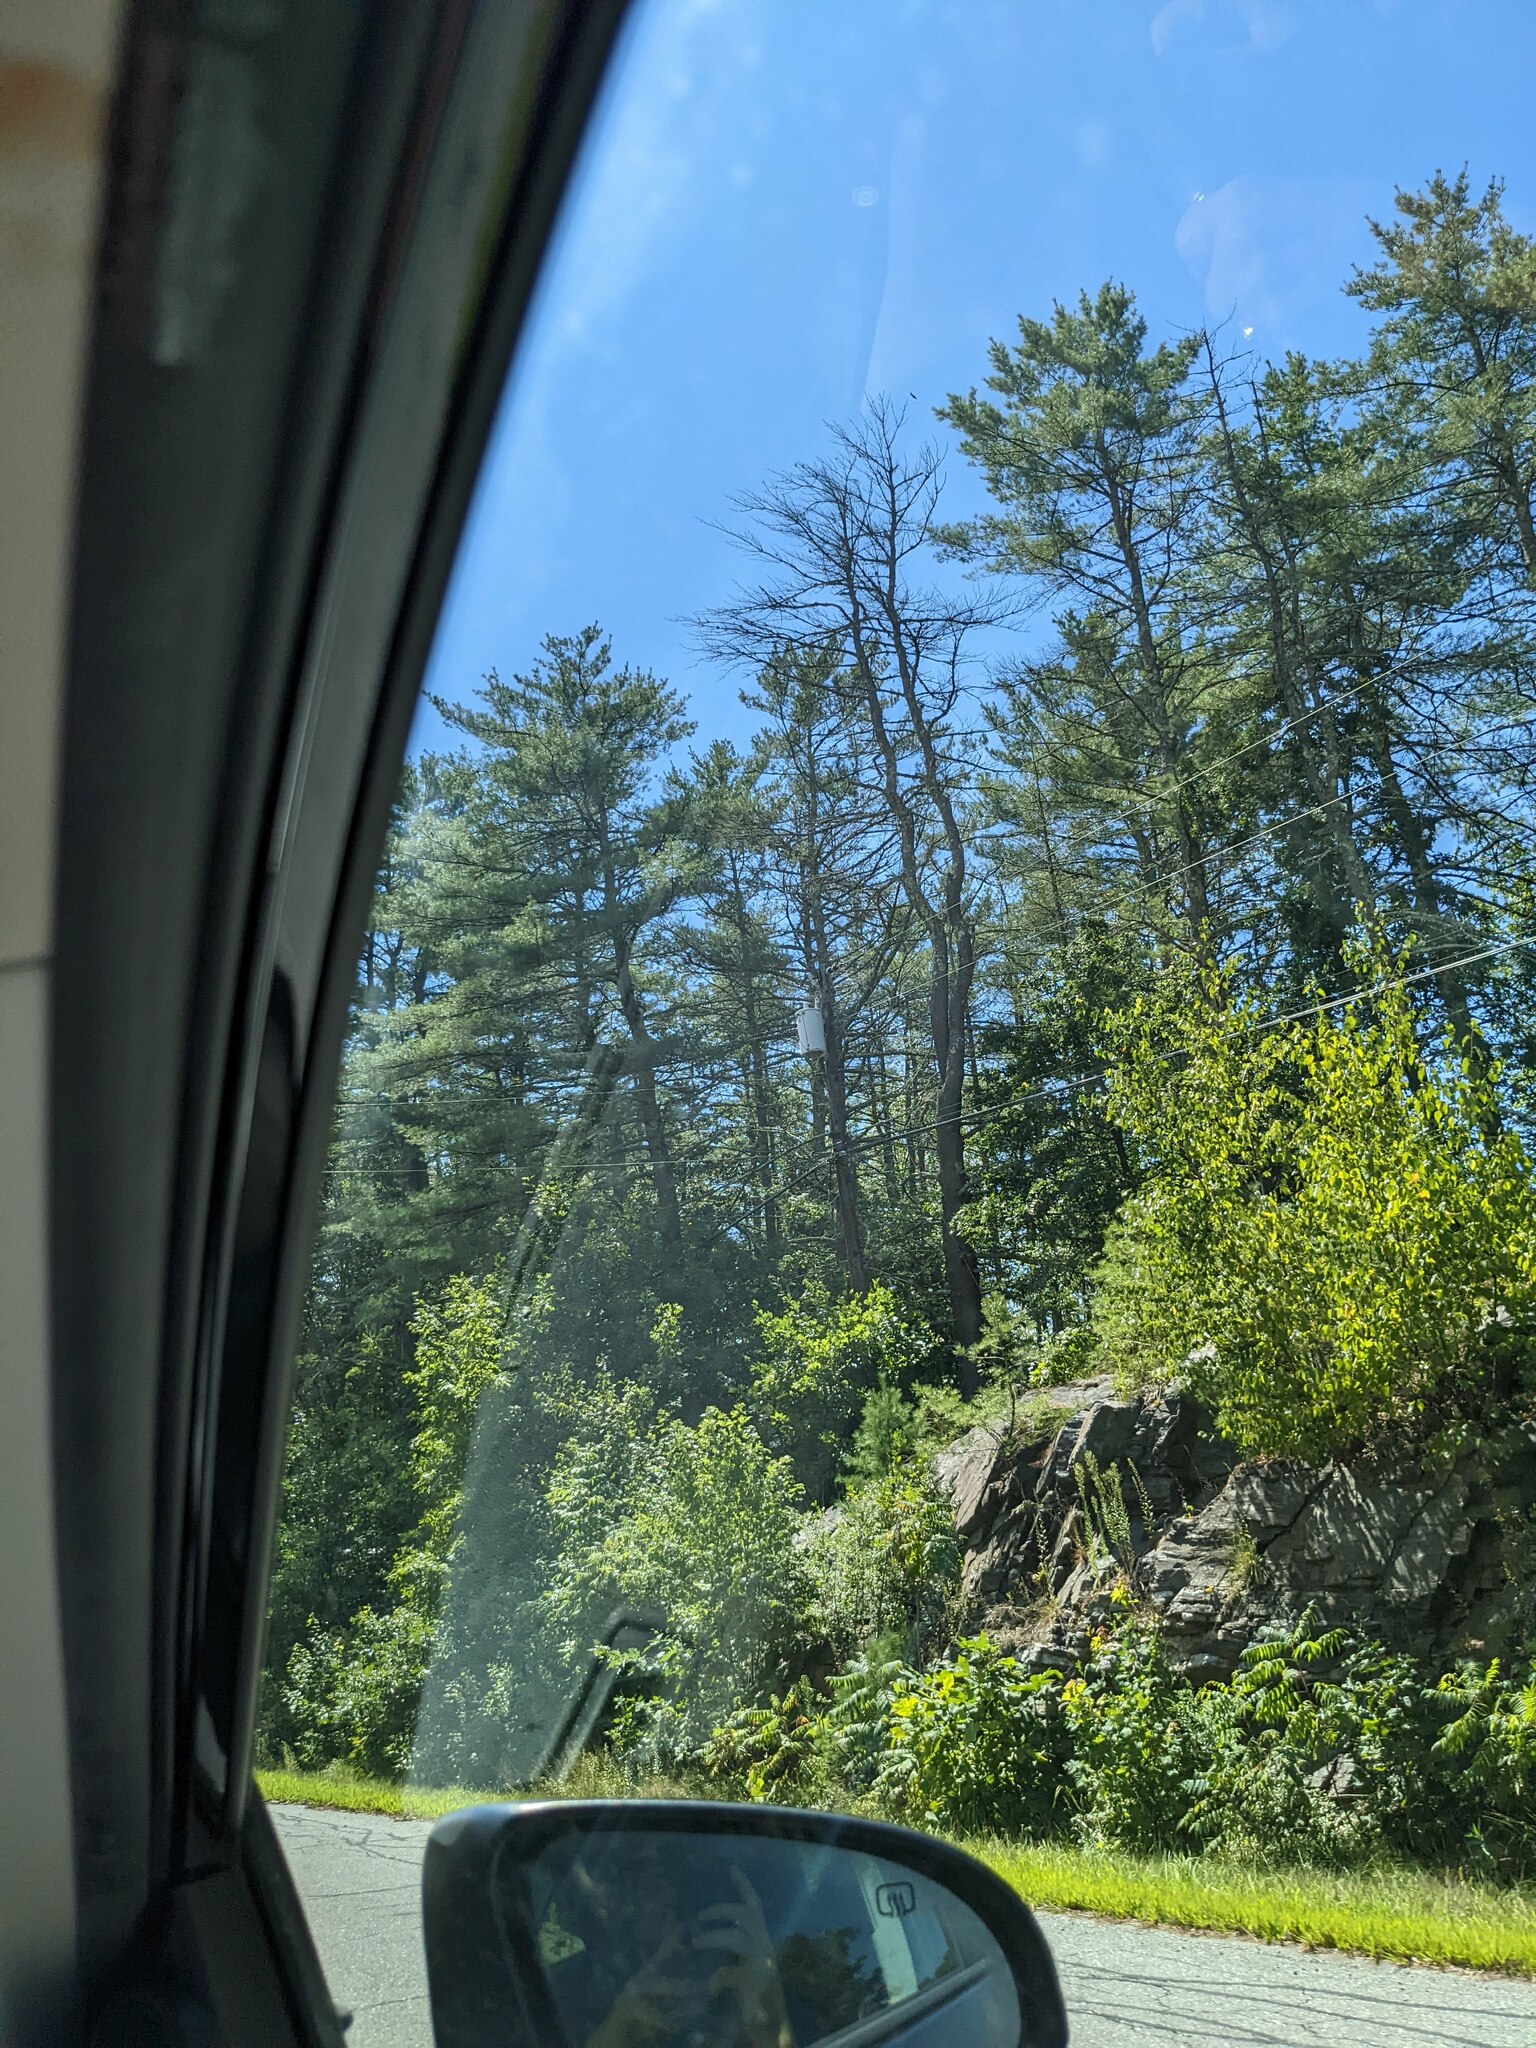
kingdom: Plantae
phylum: Tracheophyta
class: Pinopsida
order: Pinales
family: Pinaceae
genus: Pinus
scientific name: Pinus strobus
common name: Weymouth pine
